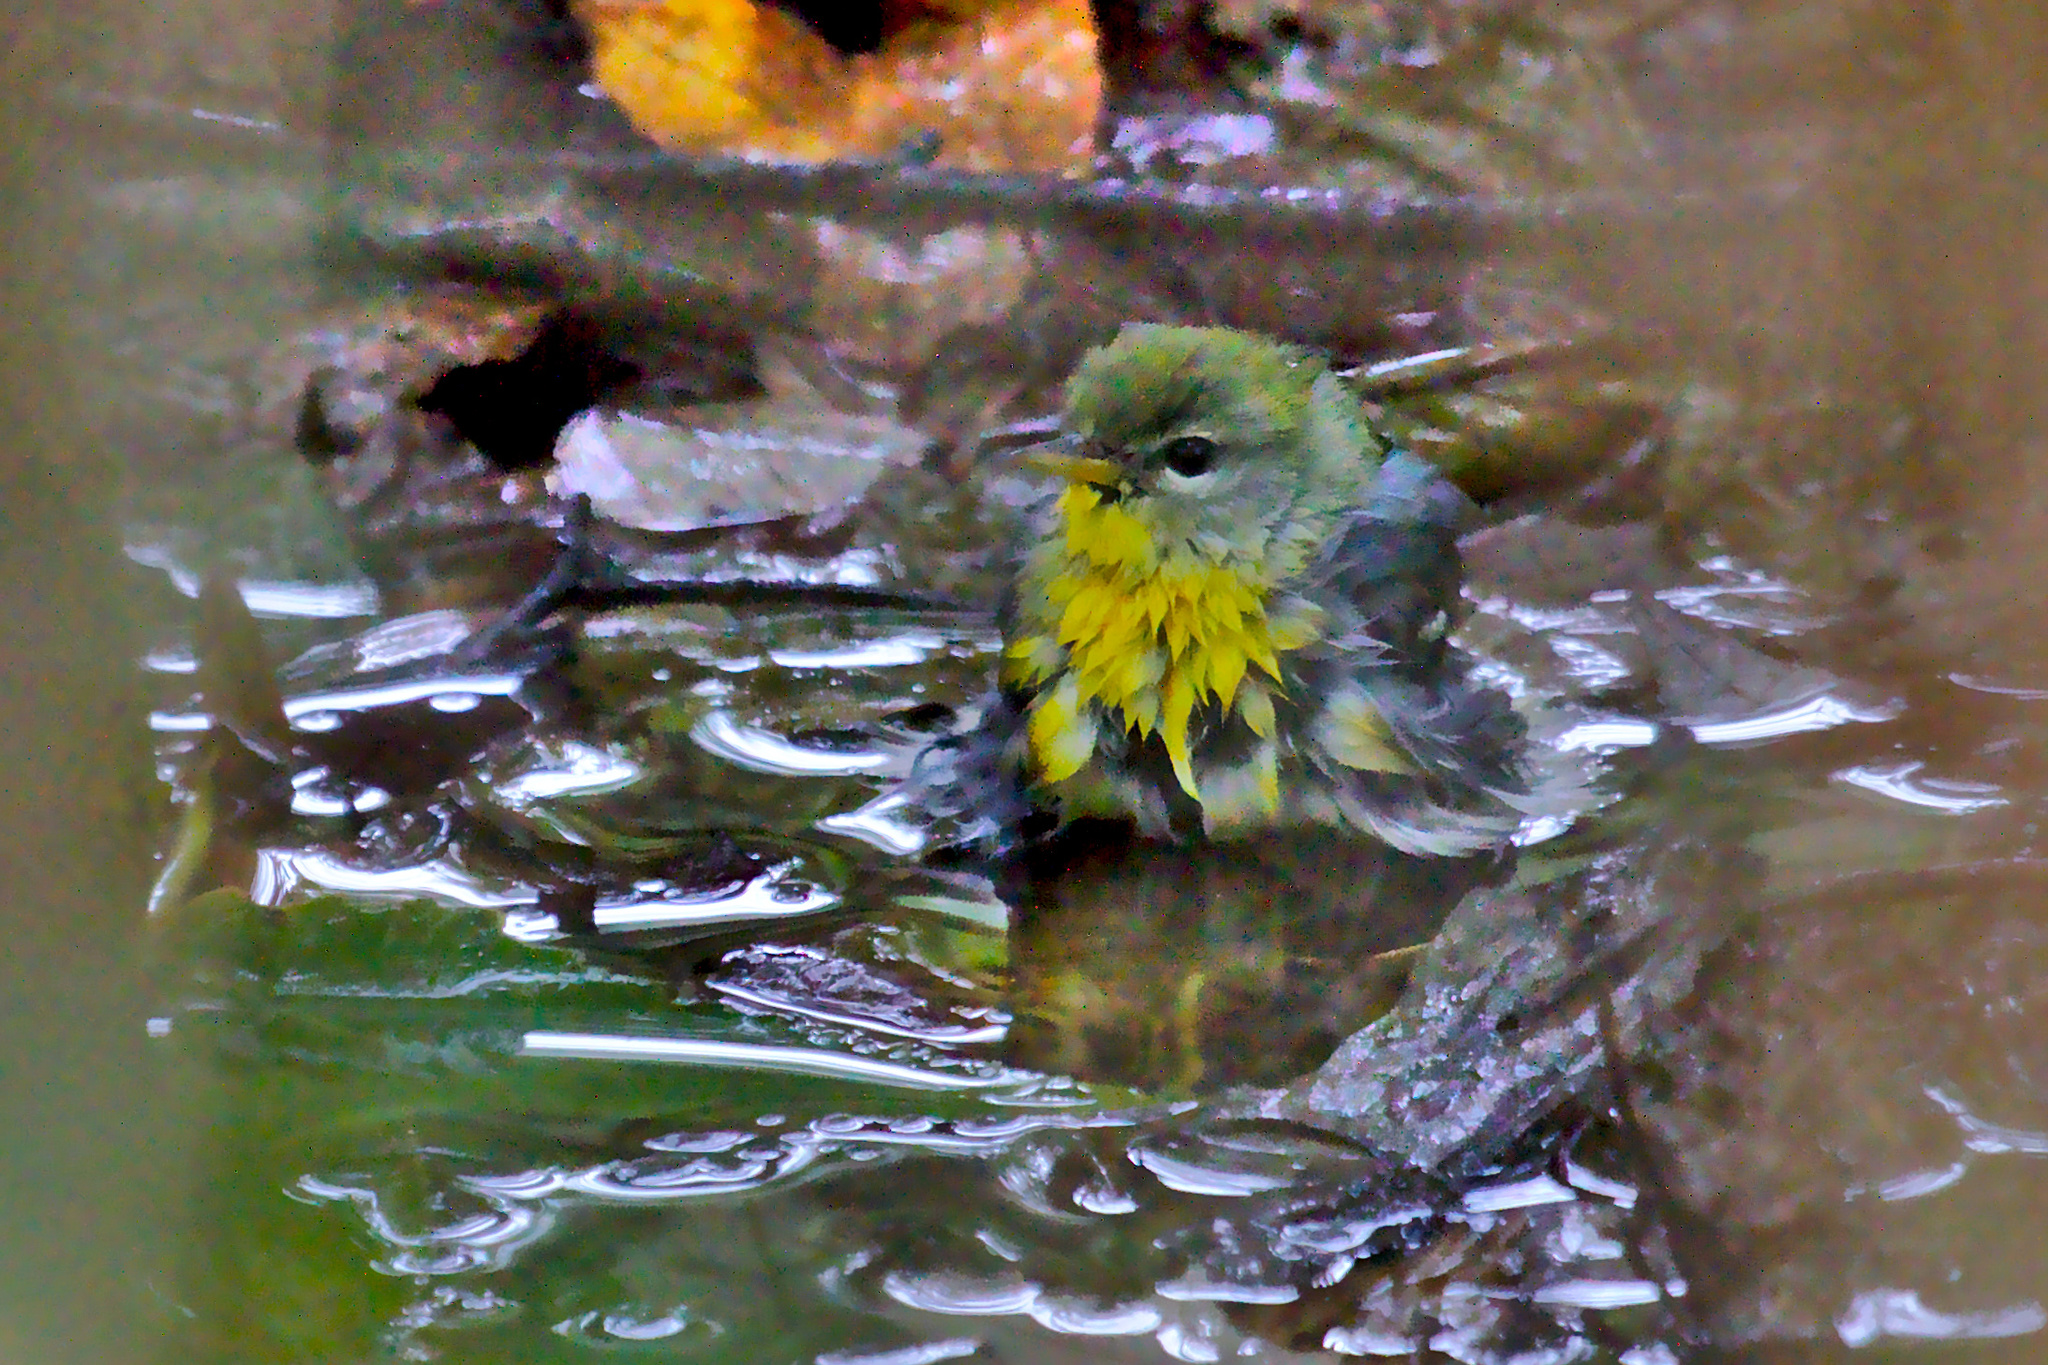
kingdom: Animalia
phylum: Chordata
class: Aves
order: Passeriformes
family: Parulidae
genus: Setophaga
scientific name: Setophaga americana
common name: Northern parula
